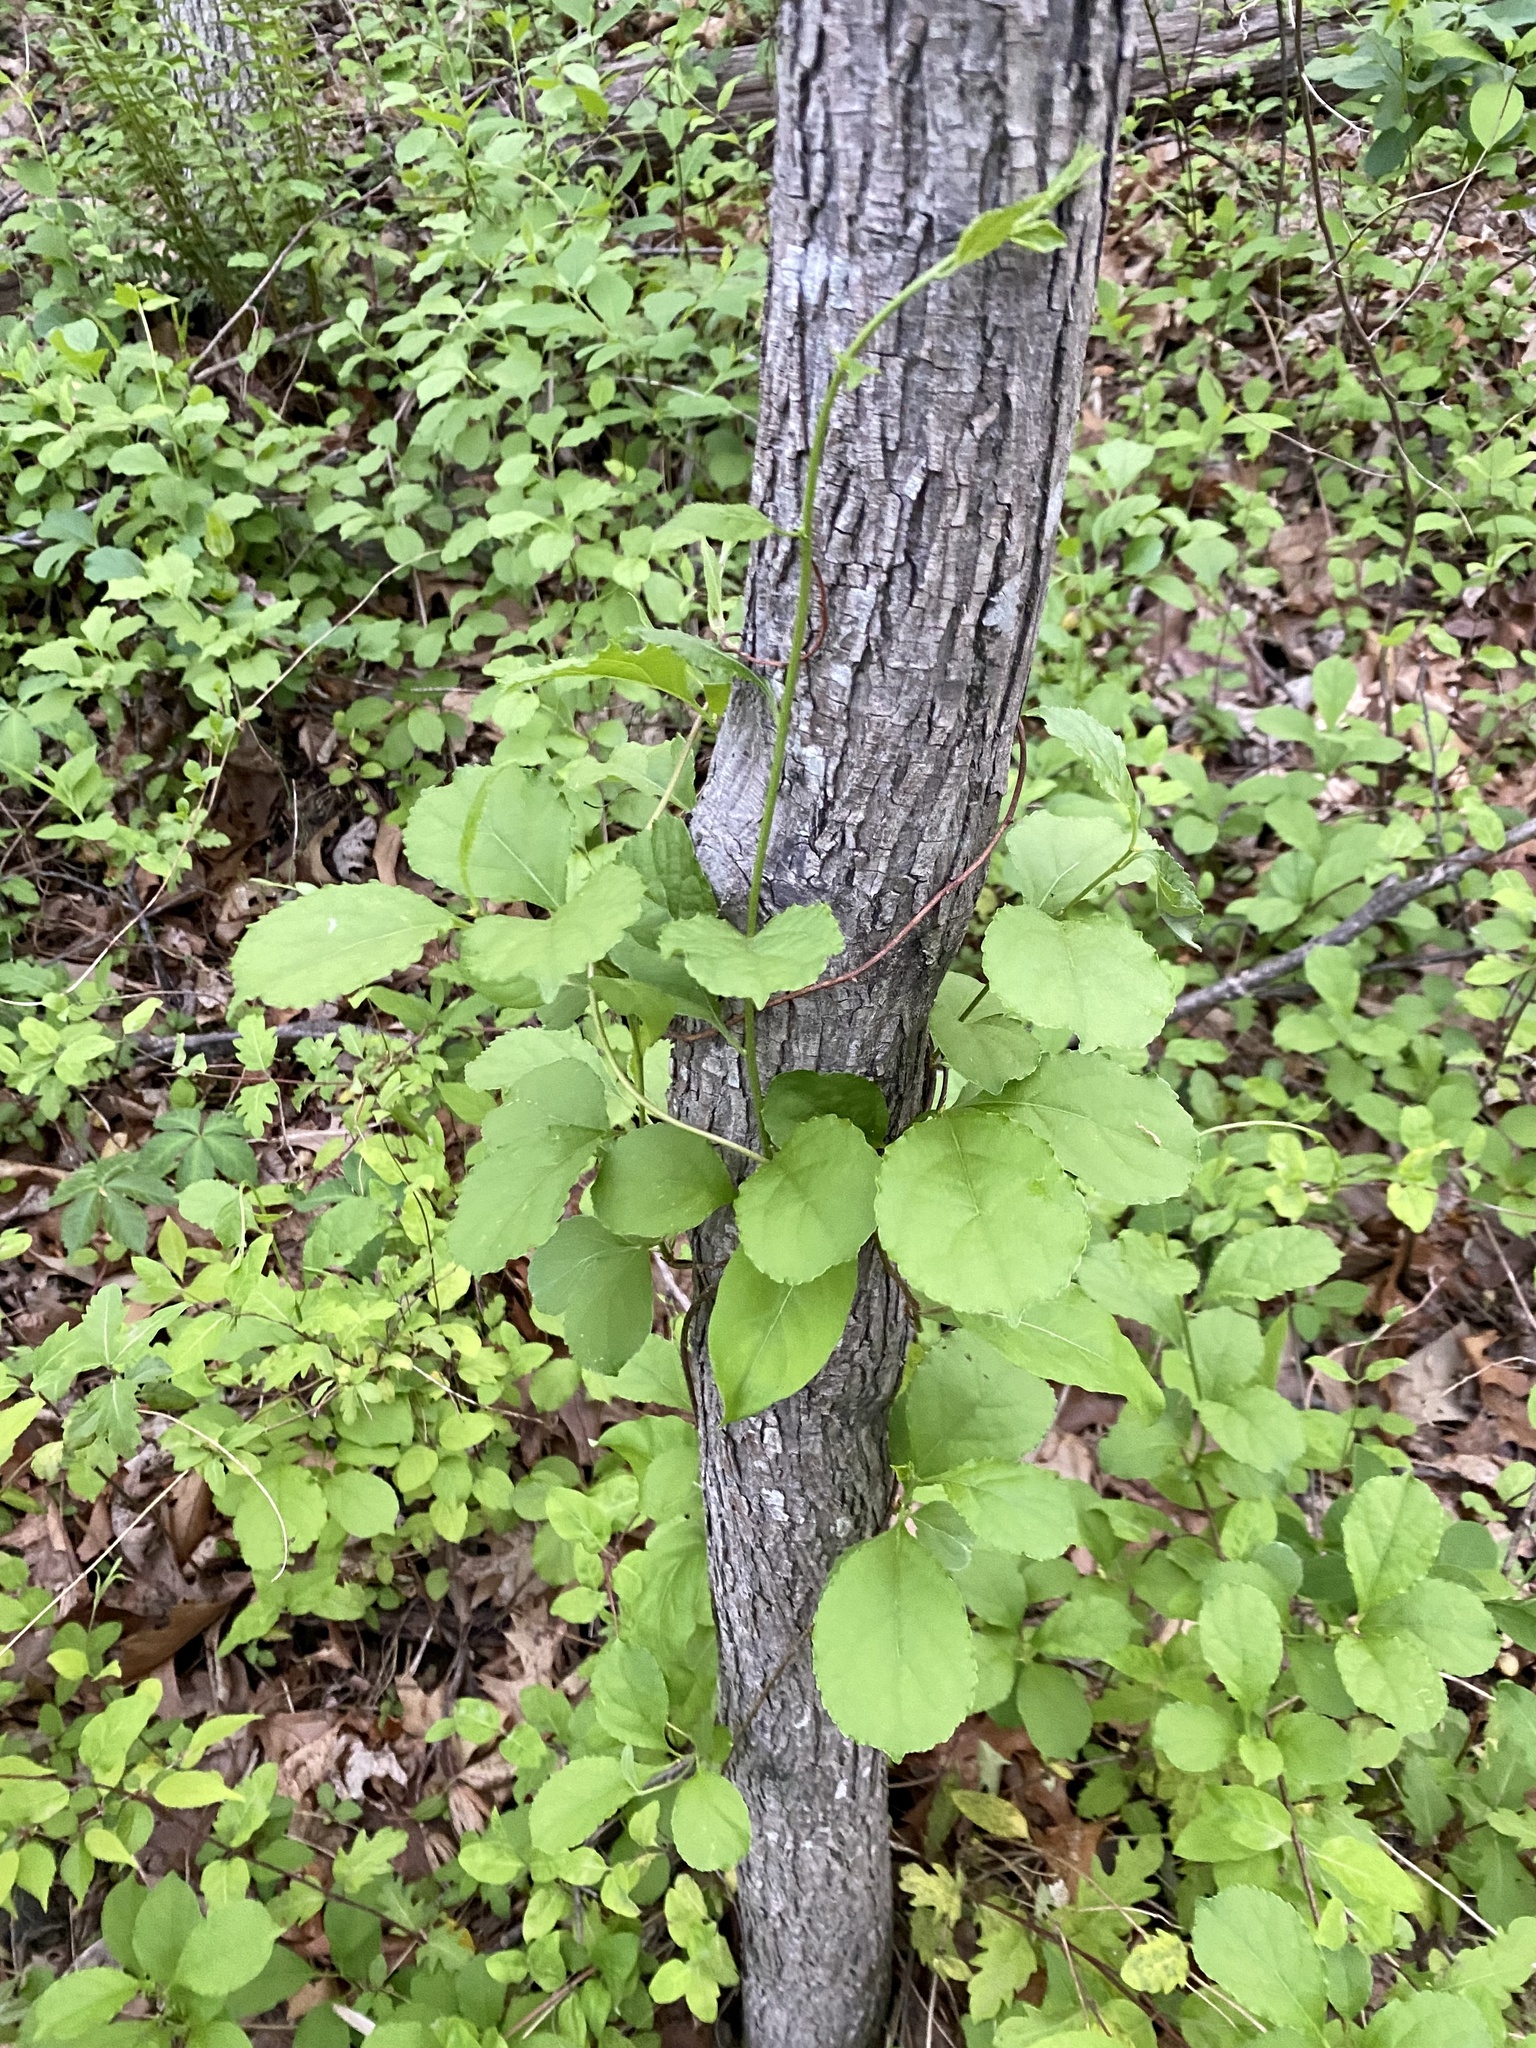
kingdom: Plantae
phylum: Tracheophyta
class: Magnoliopsida
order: Celastrales
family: Celastraceae
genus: Celastrus
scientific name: Celastrus orbiculatus
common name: Oriental bittersweet
